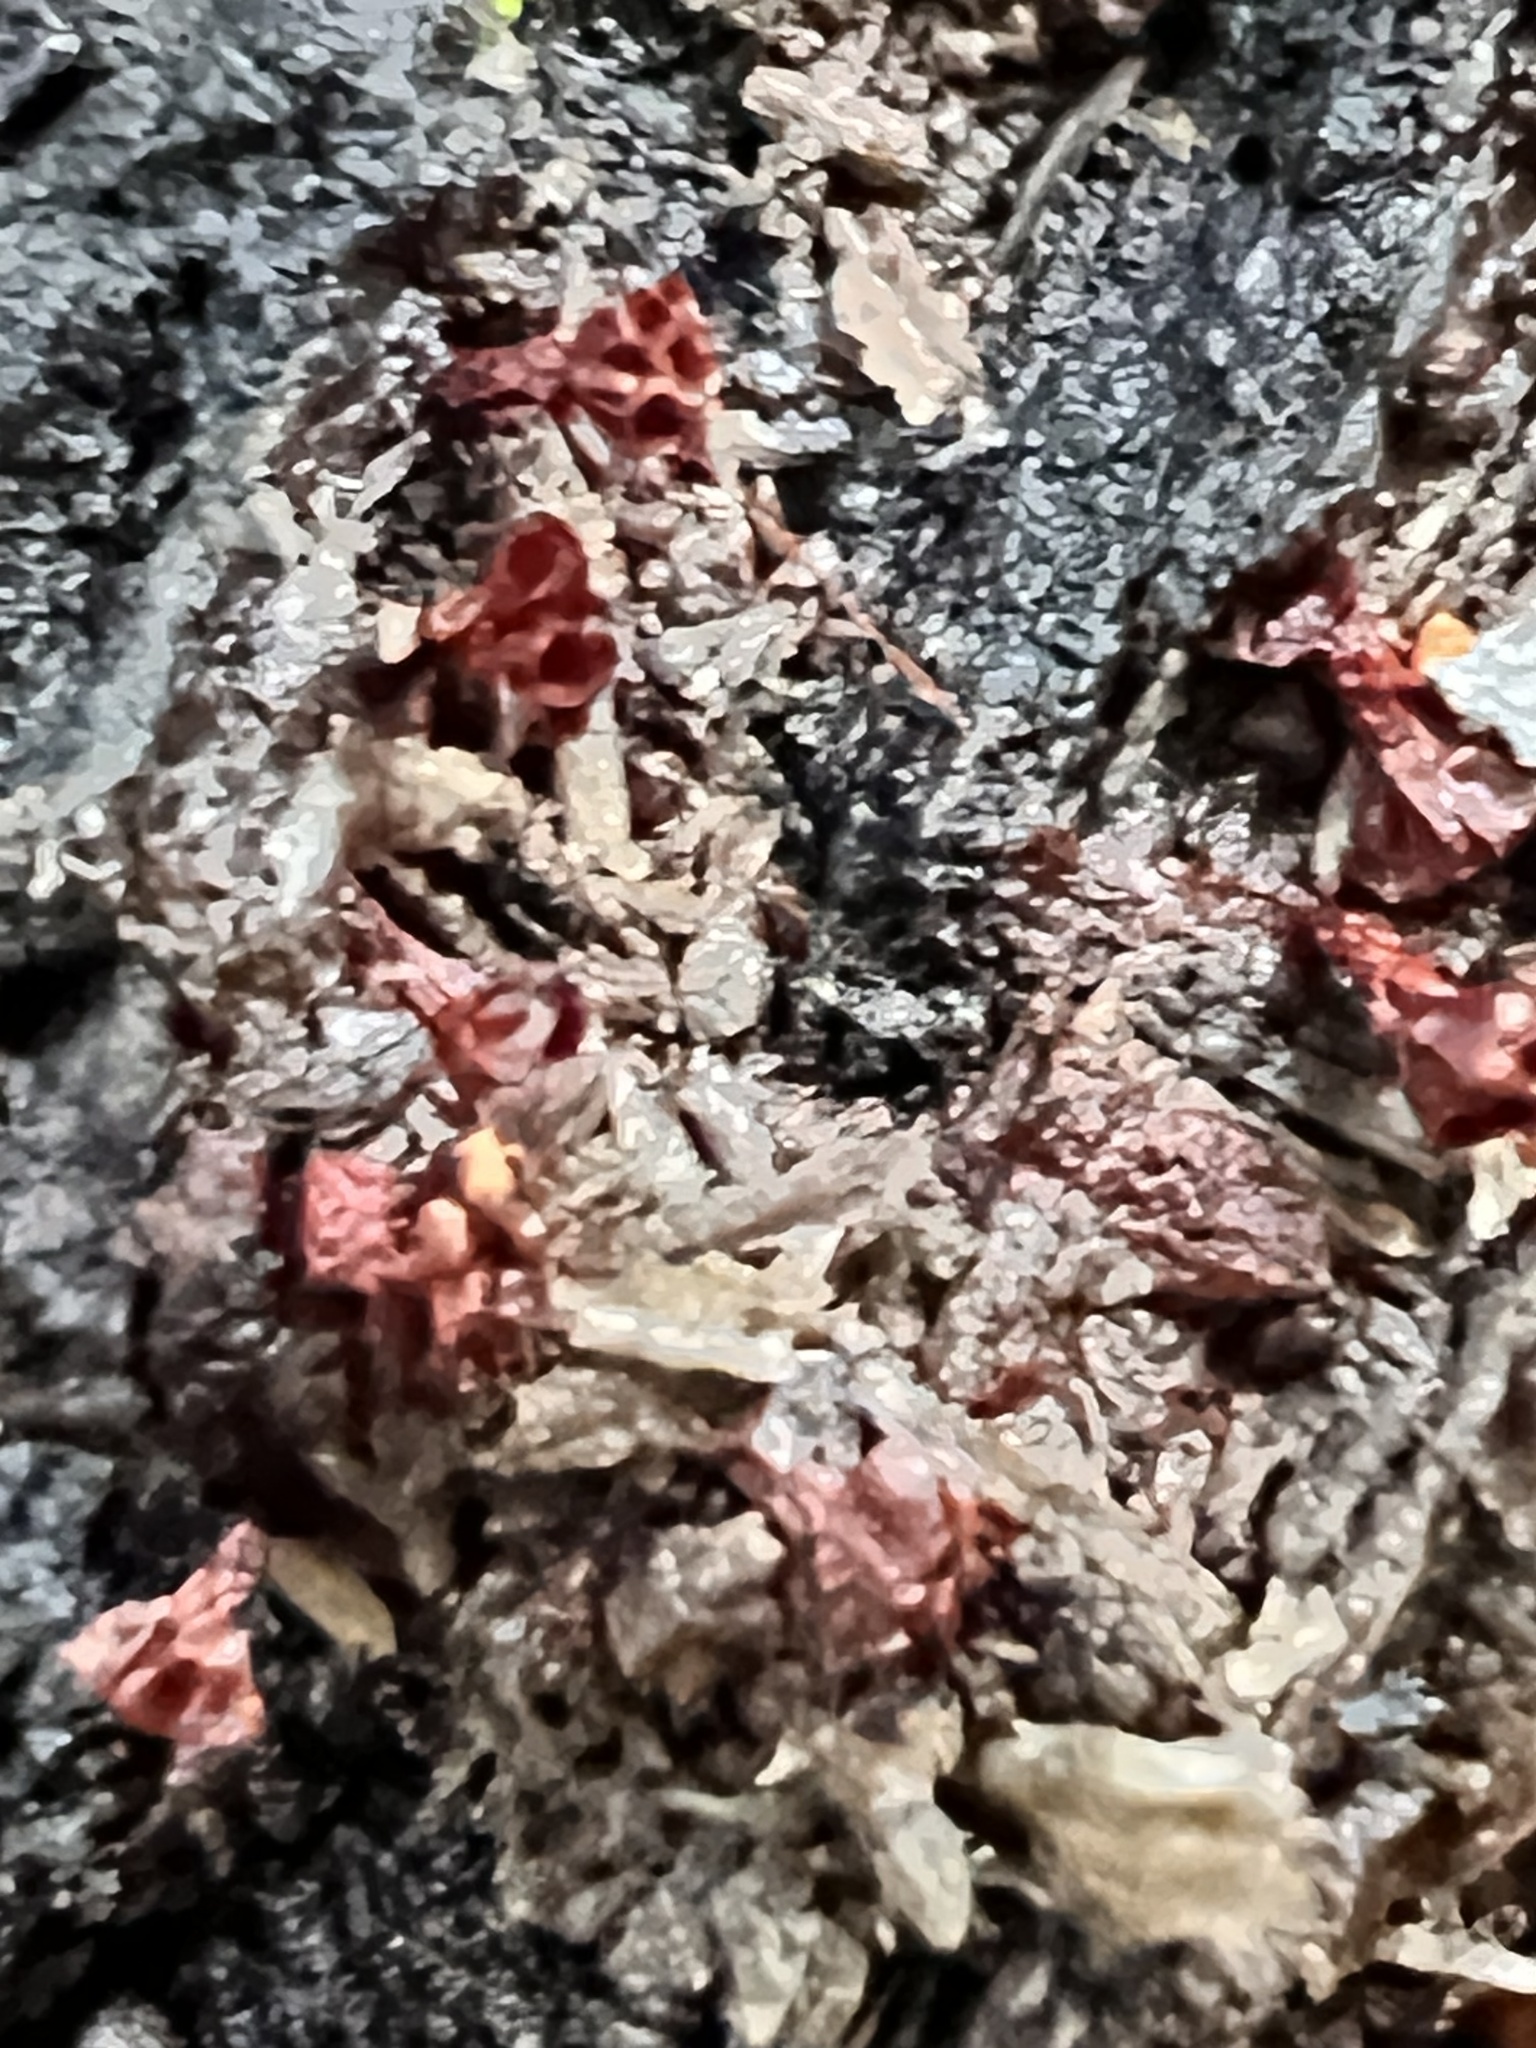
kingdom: Protozoa
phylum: Mycetozoa
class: Myxomycetes
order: Trichiales
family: Trichiaceae
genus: Metatrichia
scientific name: Metatrichia vesparia
